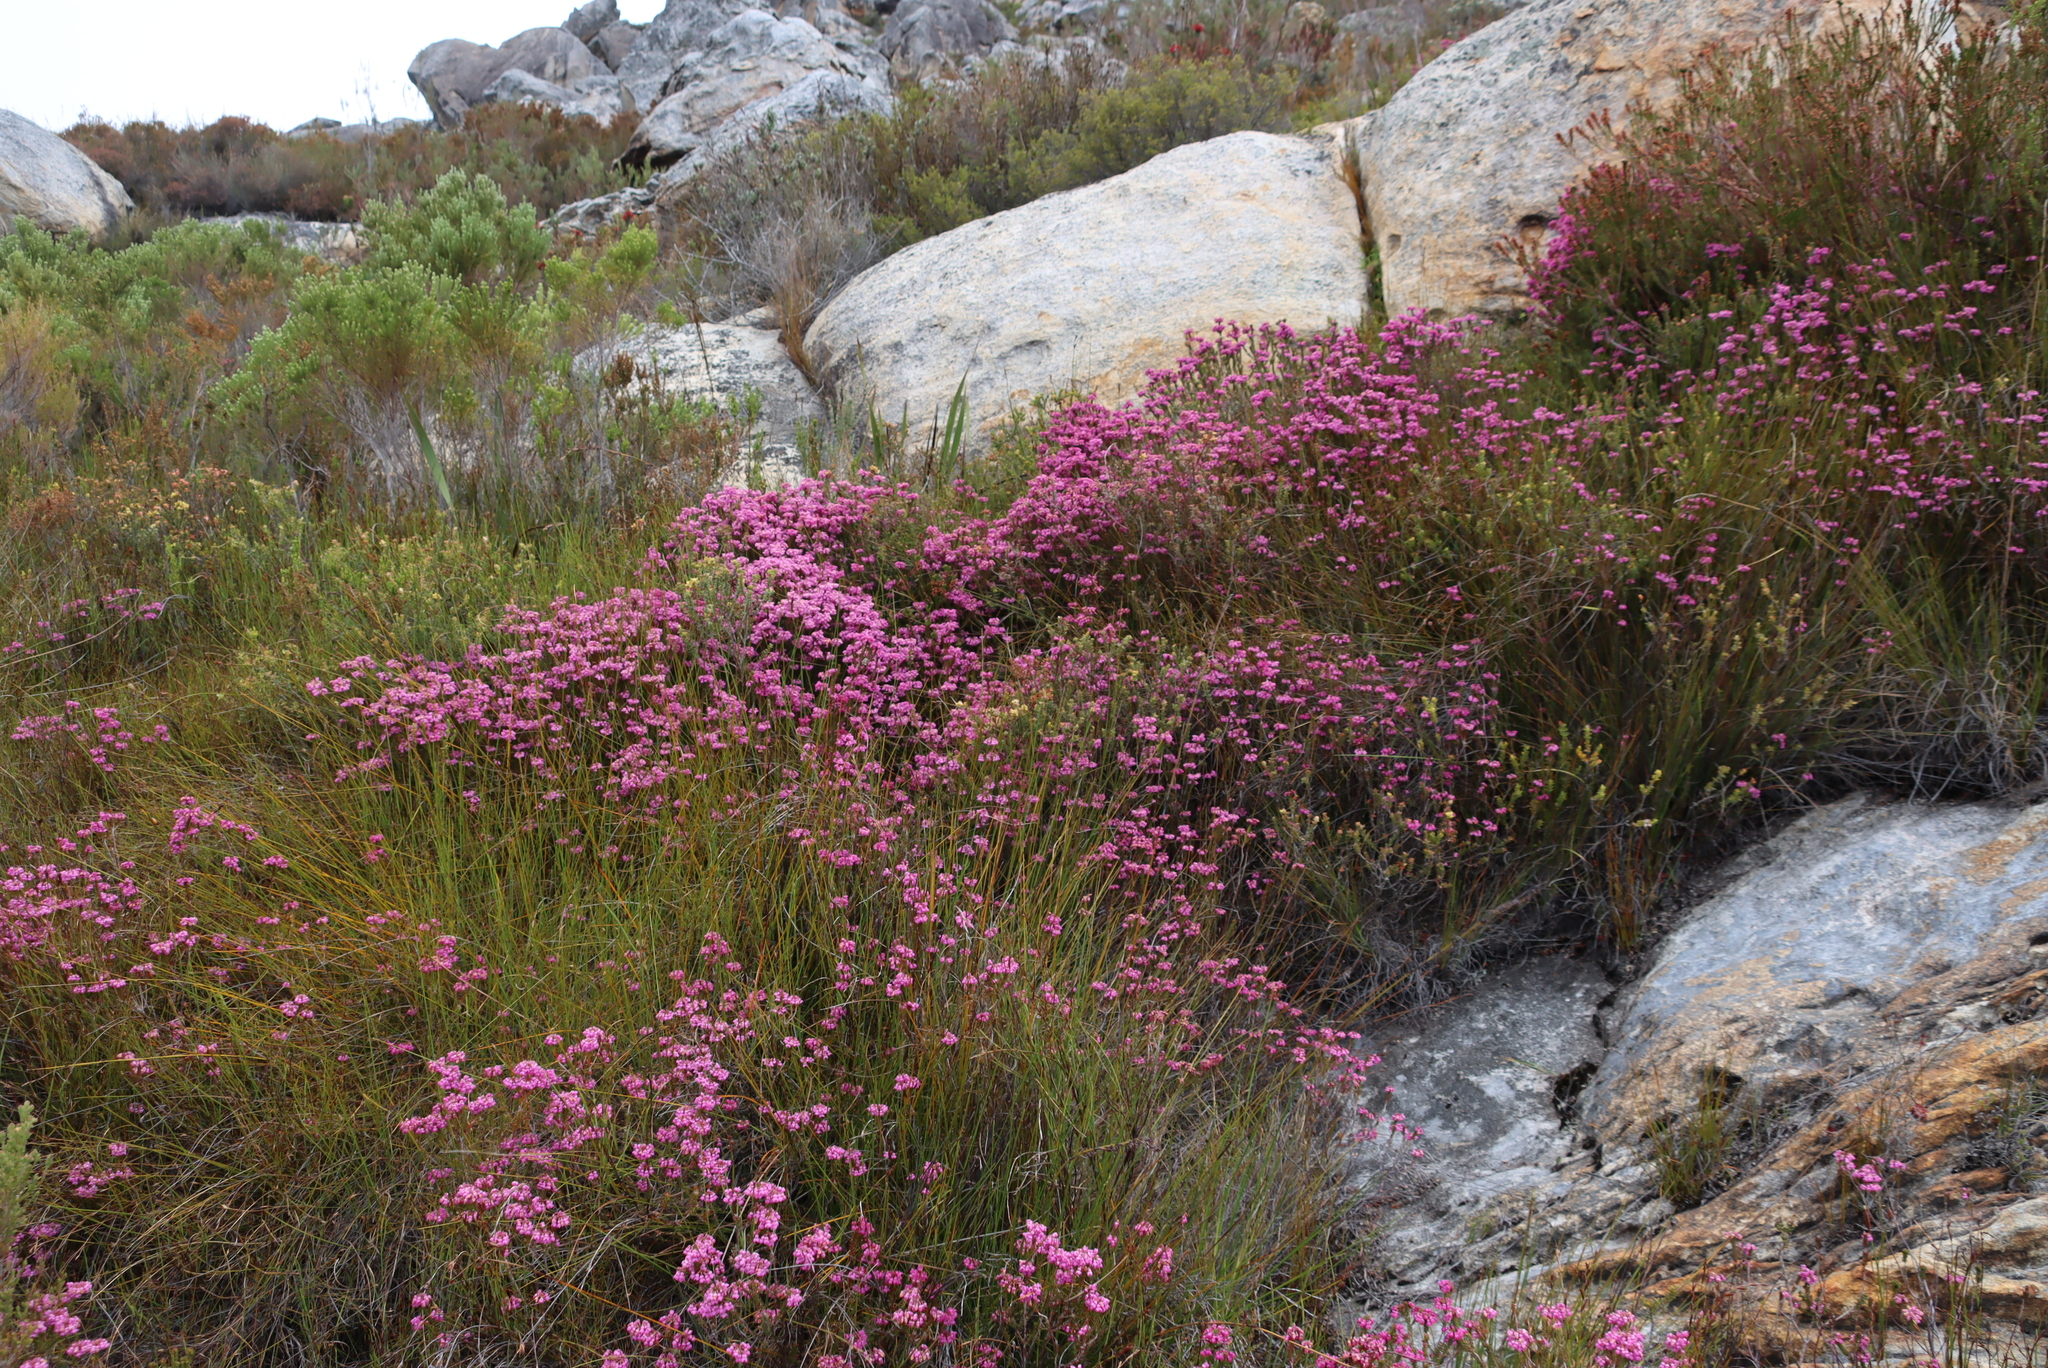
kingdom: Plantae
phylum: Tracheophyta
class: Magnoliopsida
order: Ericales
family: Ericaceae
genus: Erica
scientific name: Erica cubica
